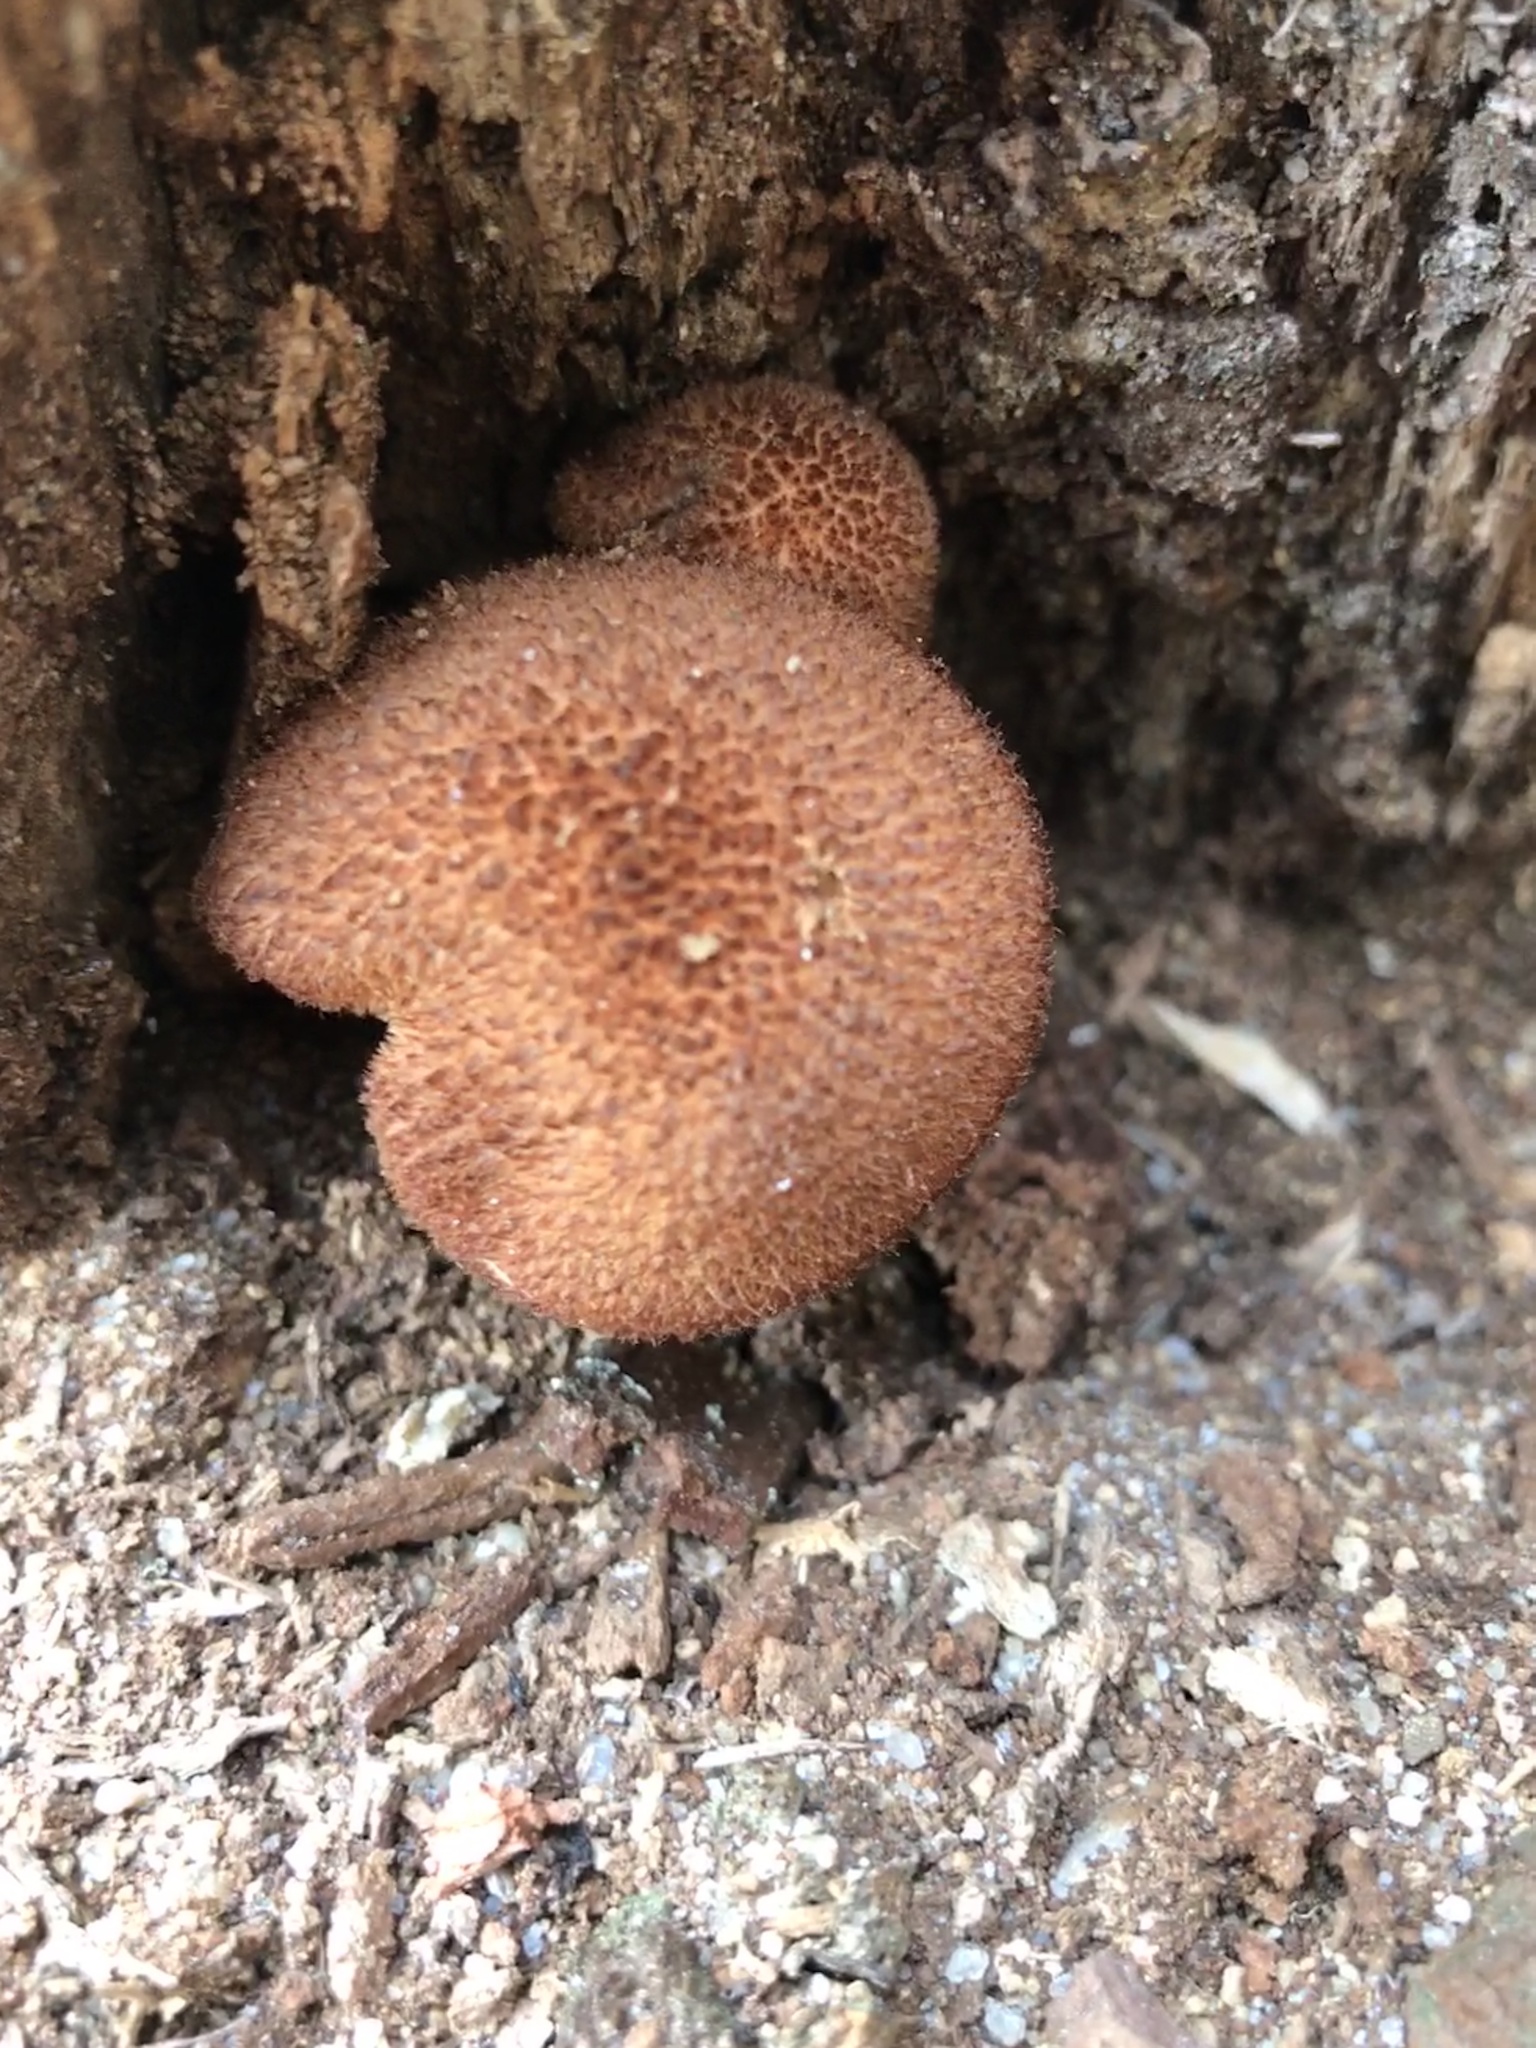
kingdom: Fungi
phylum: Basidiomycota
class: Agaricomycetes
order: Agaricales
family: Tricholomataceae
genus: Tricholomopsis
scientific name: Tricholomopsis formosa
